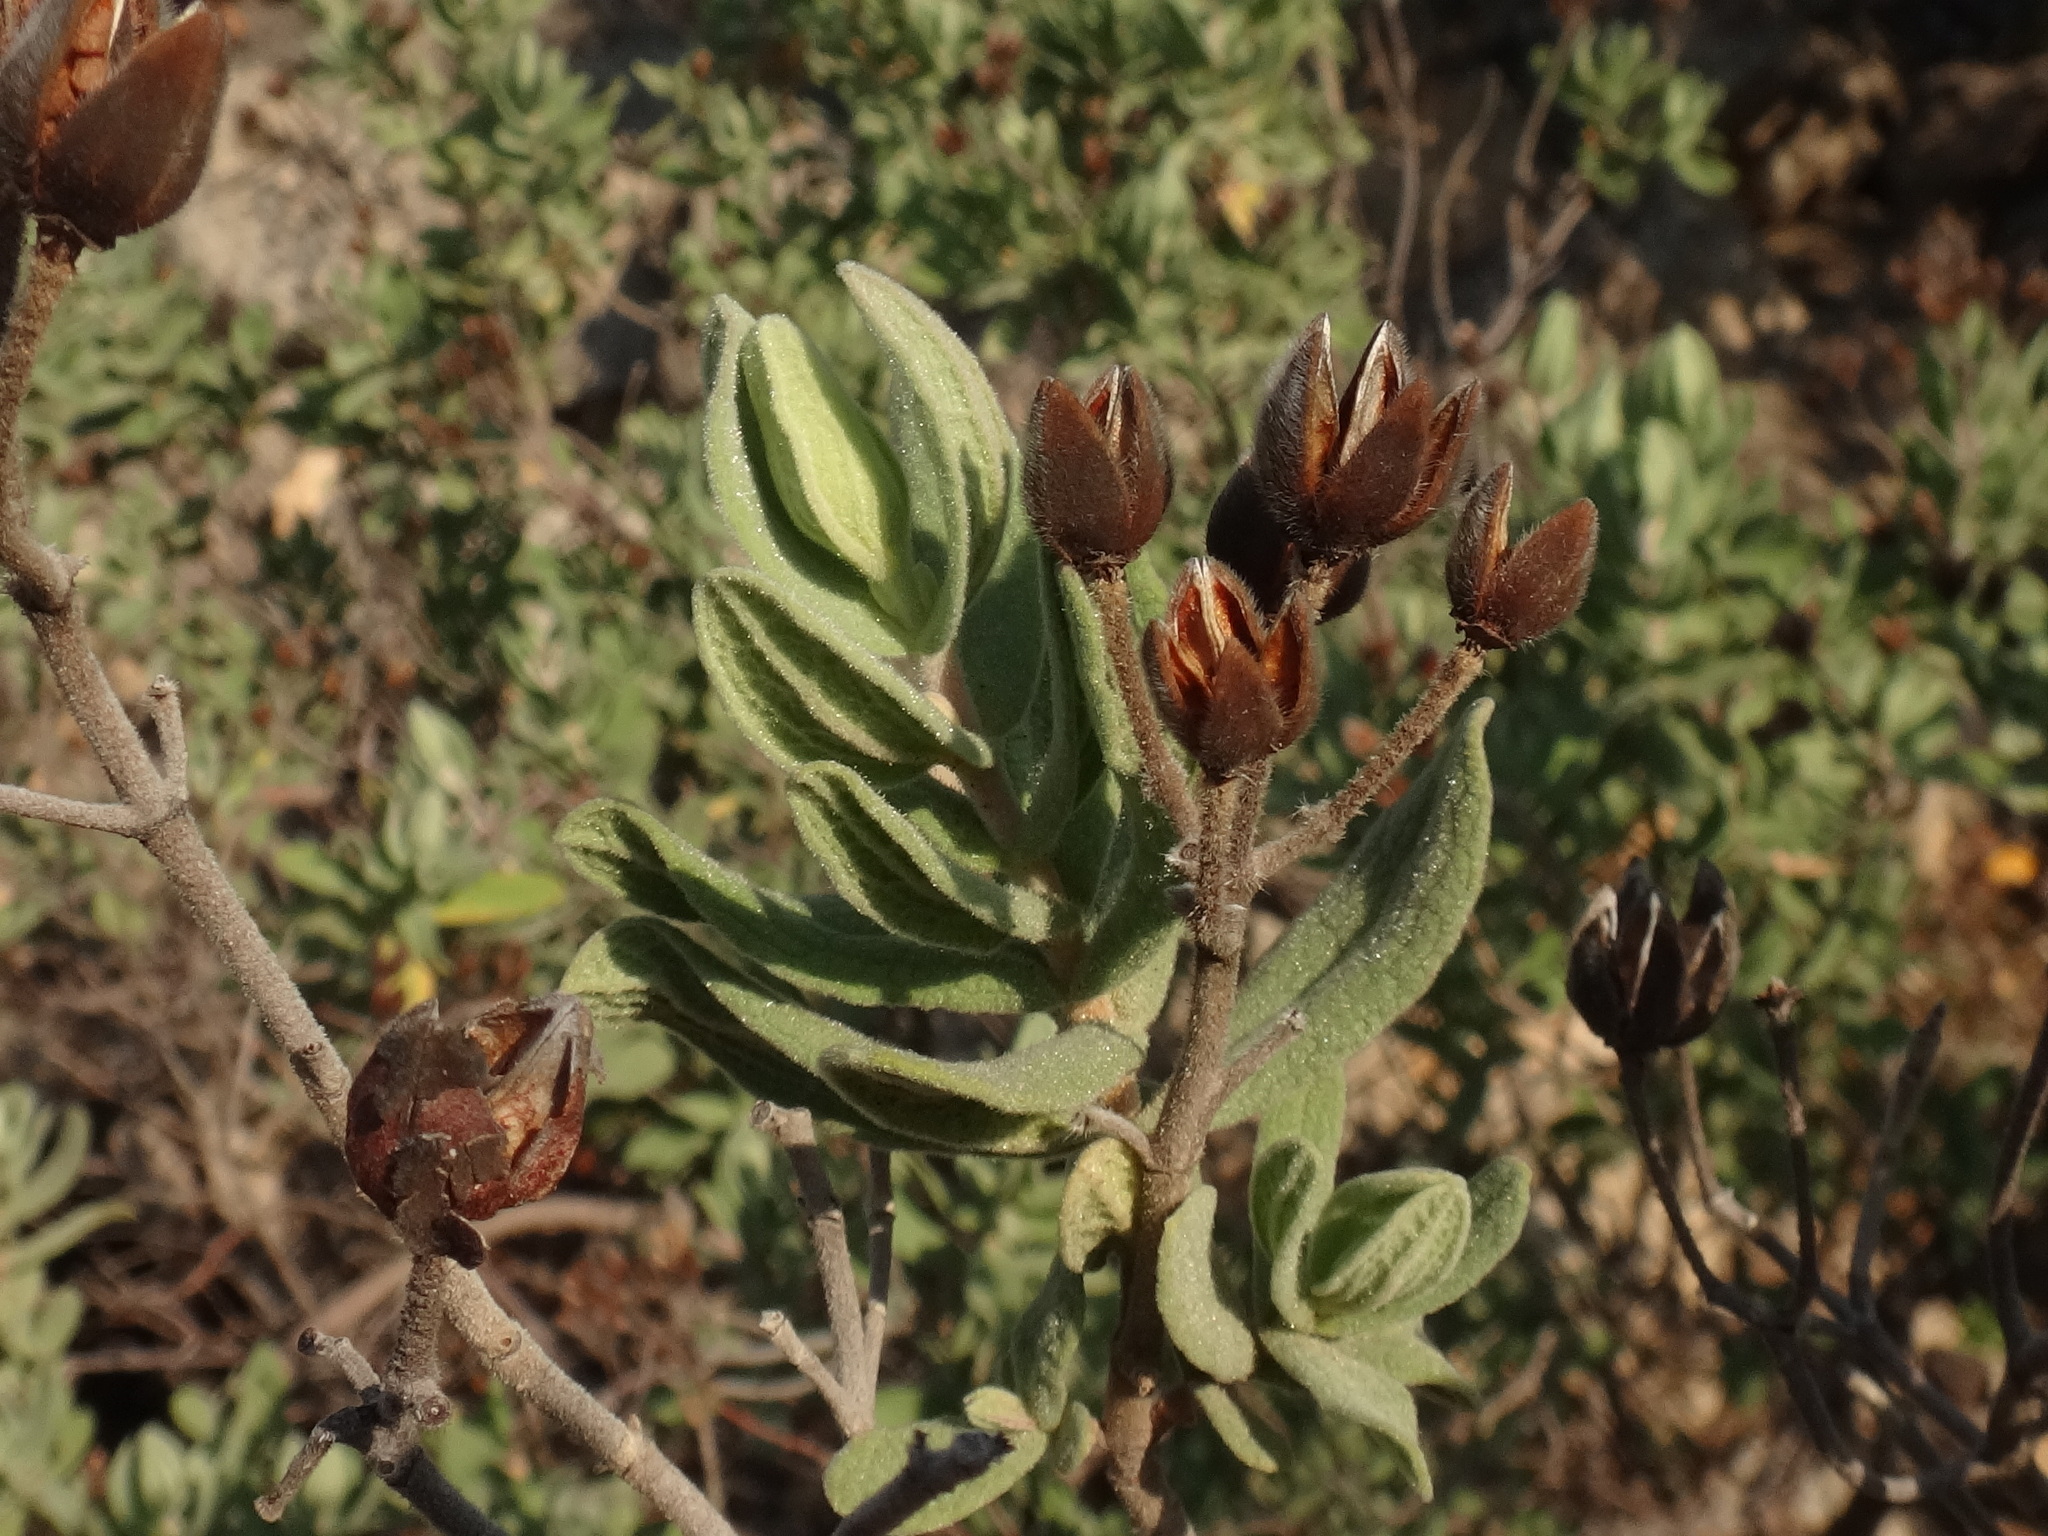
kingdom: Plantae
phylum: Tracheophyta
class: Magnoliopsida
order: Malvales
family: Cistaceae
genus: Cistus
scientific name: Cistus albidus
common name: White-leaf rock-rose
